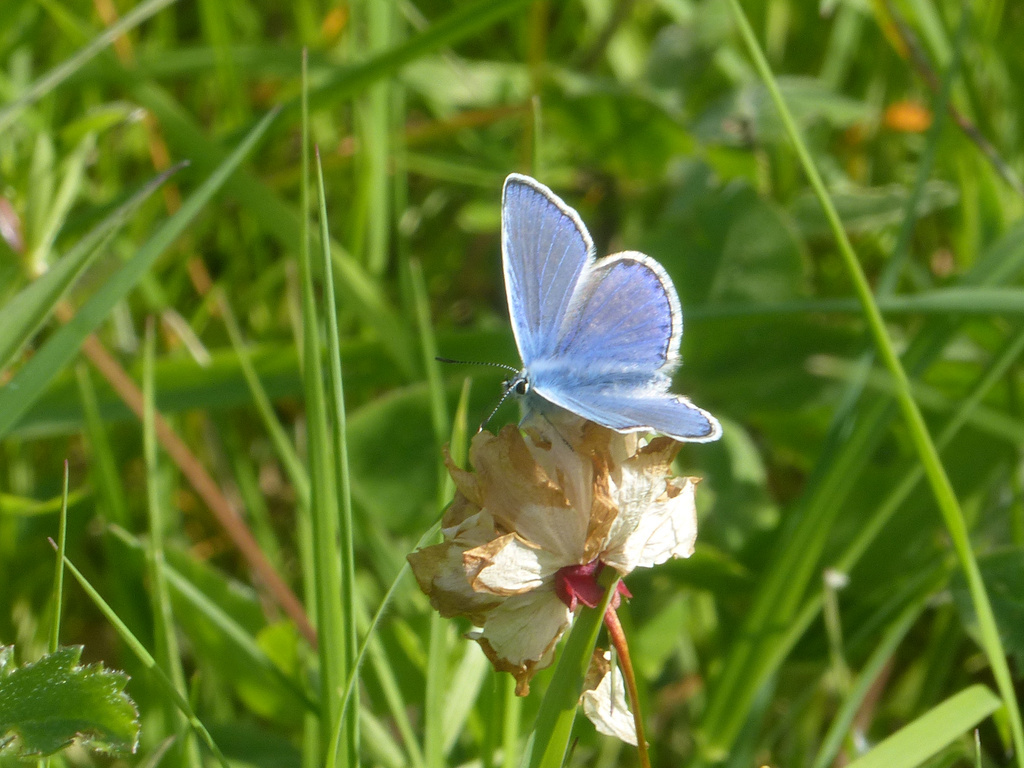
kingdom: Animalia
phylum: Arthropoda
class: Insecta
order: Lepidoptera
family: Lycaenidae
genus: Polyommatus
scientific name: Polyommatus icarus
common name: Common blue
